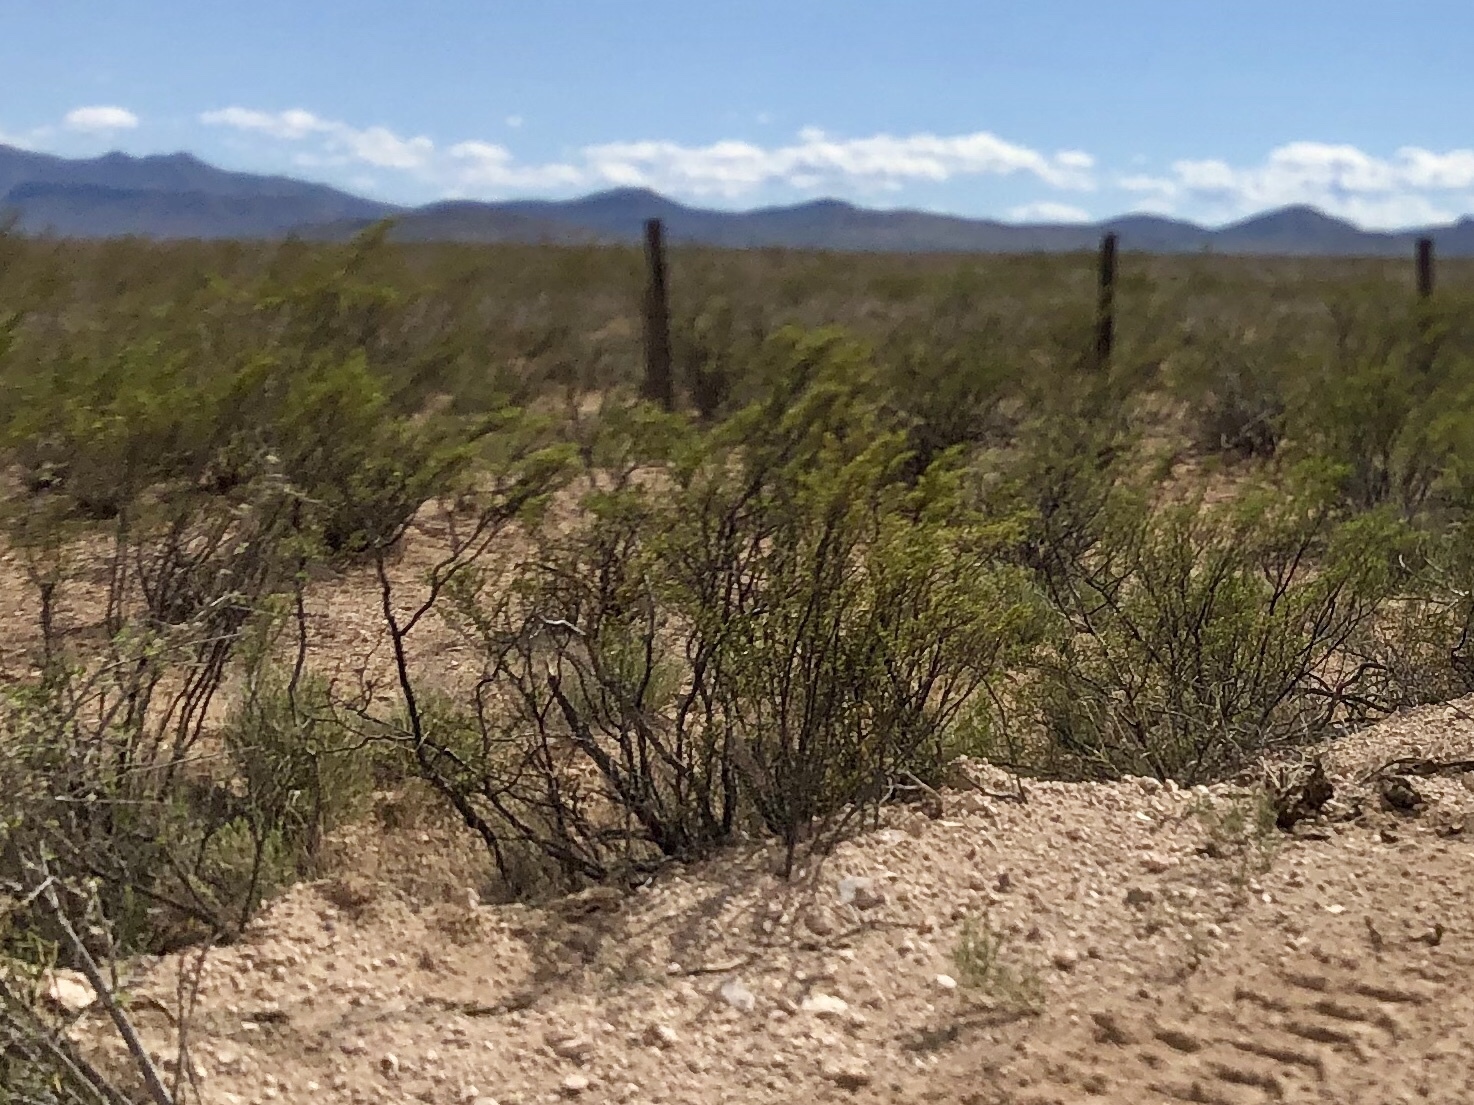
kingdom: Plantae
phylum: Tracheophyta
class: Magnoliopsida
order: Zygophyllales
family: Zygophyllaceae
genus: Larrea
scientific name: Larrea tridentata
